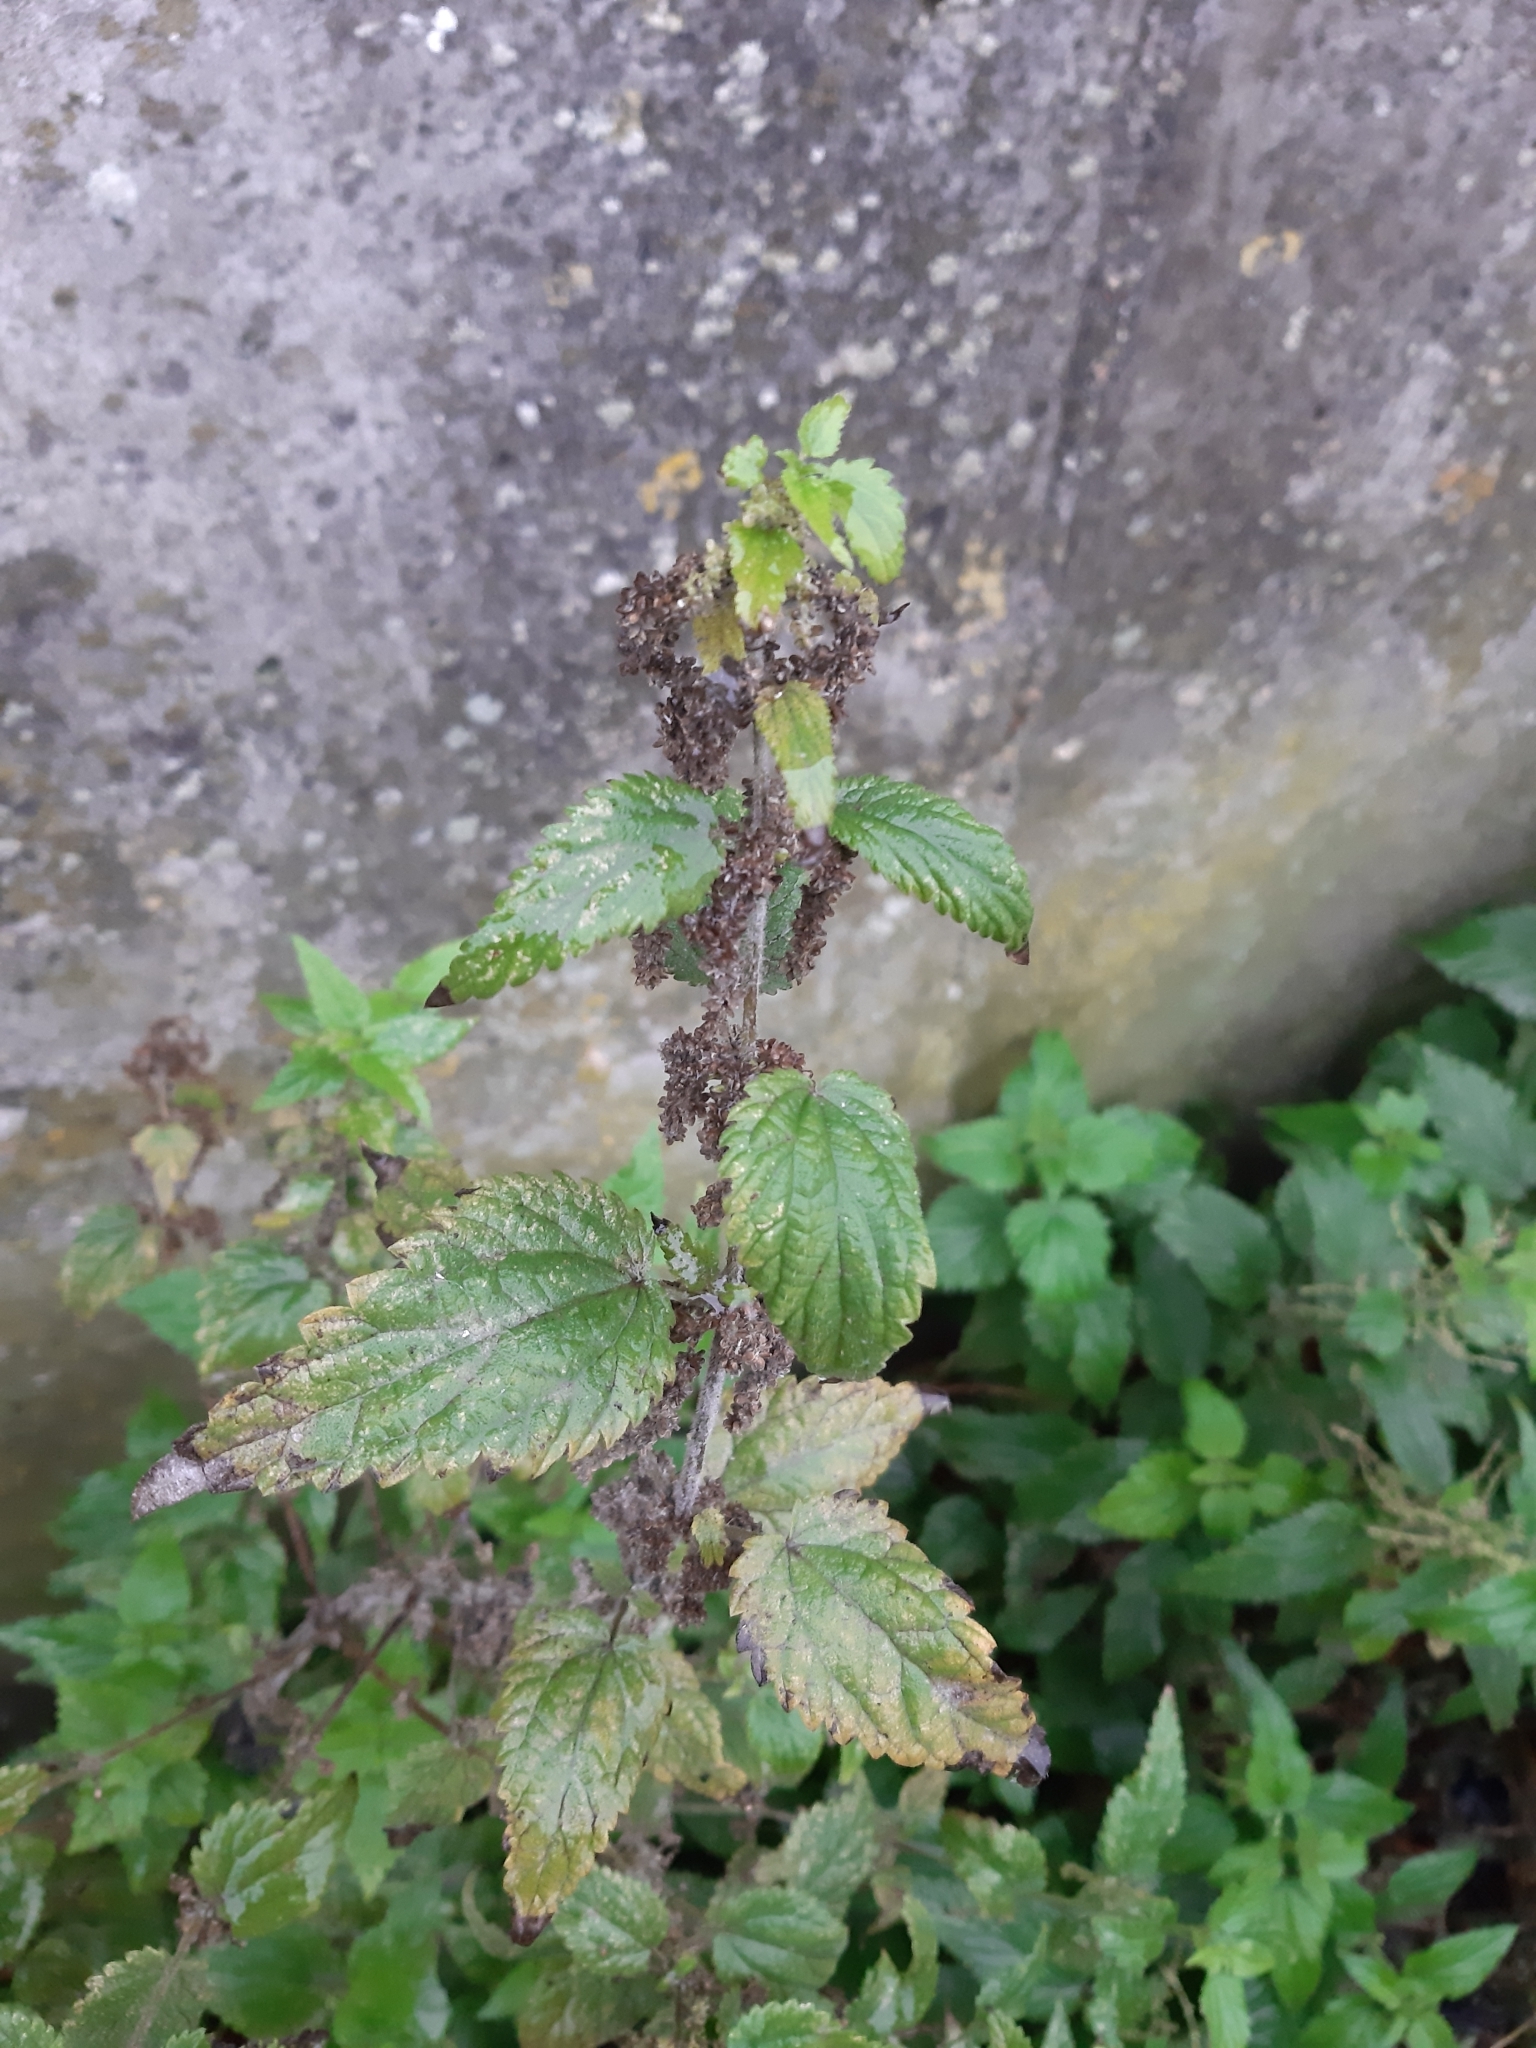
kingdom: Plantae
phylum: Tracheophyta
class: Magnoliopsida
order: Rosales
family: Urticaceae
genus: Urtica
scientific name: Urtica dioica
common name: Common nettle
